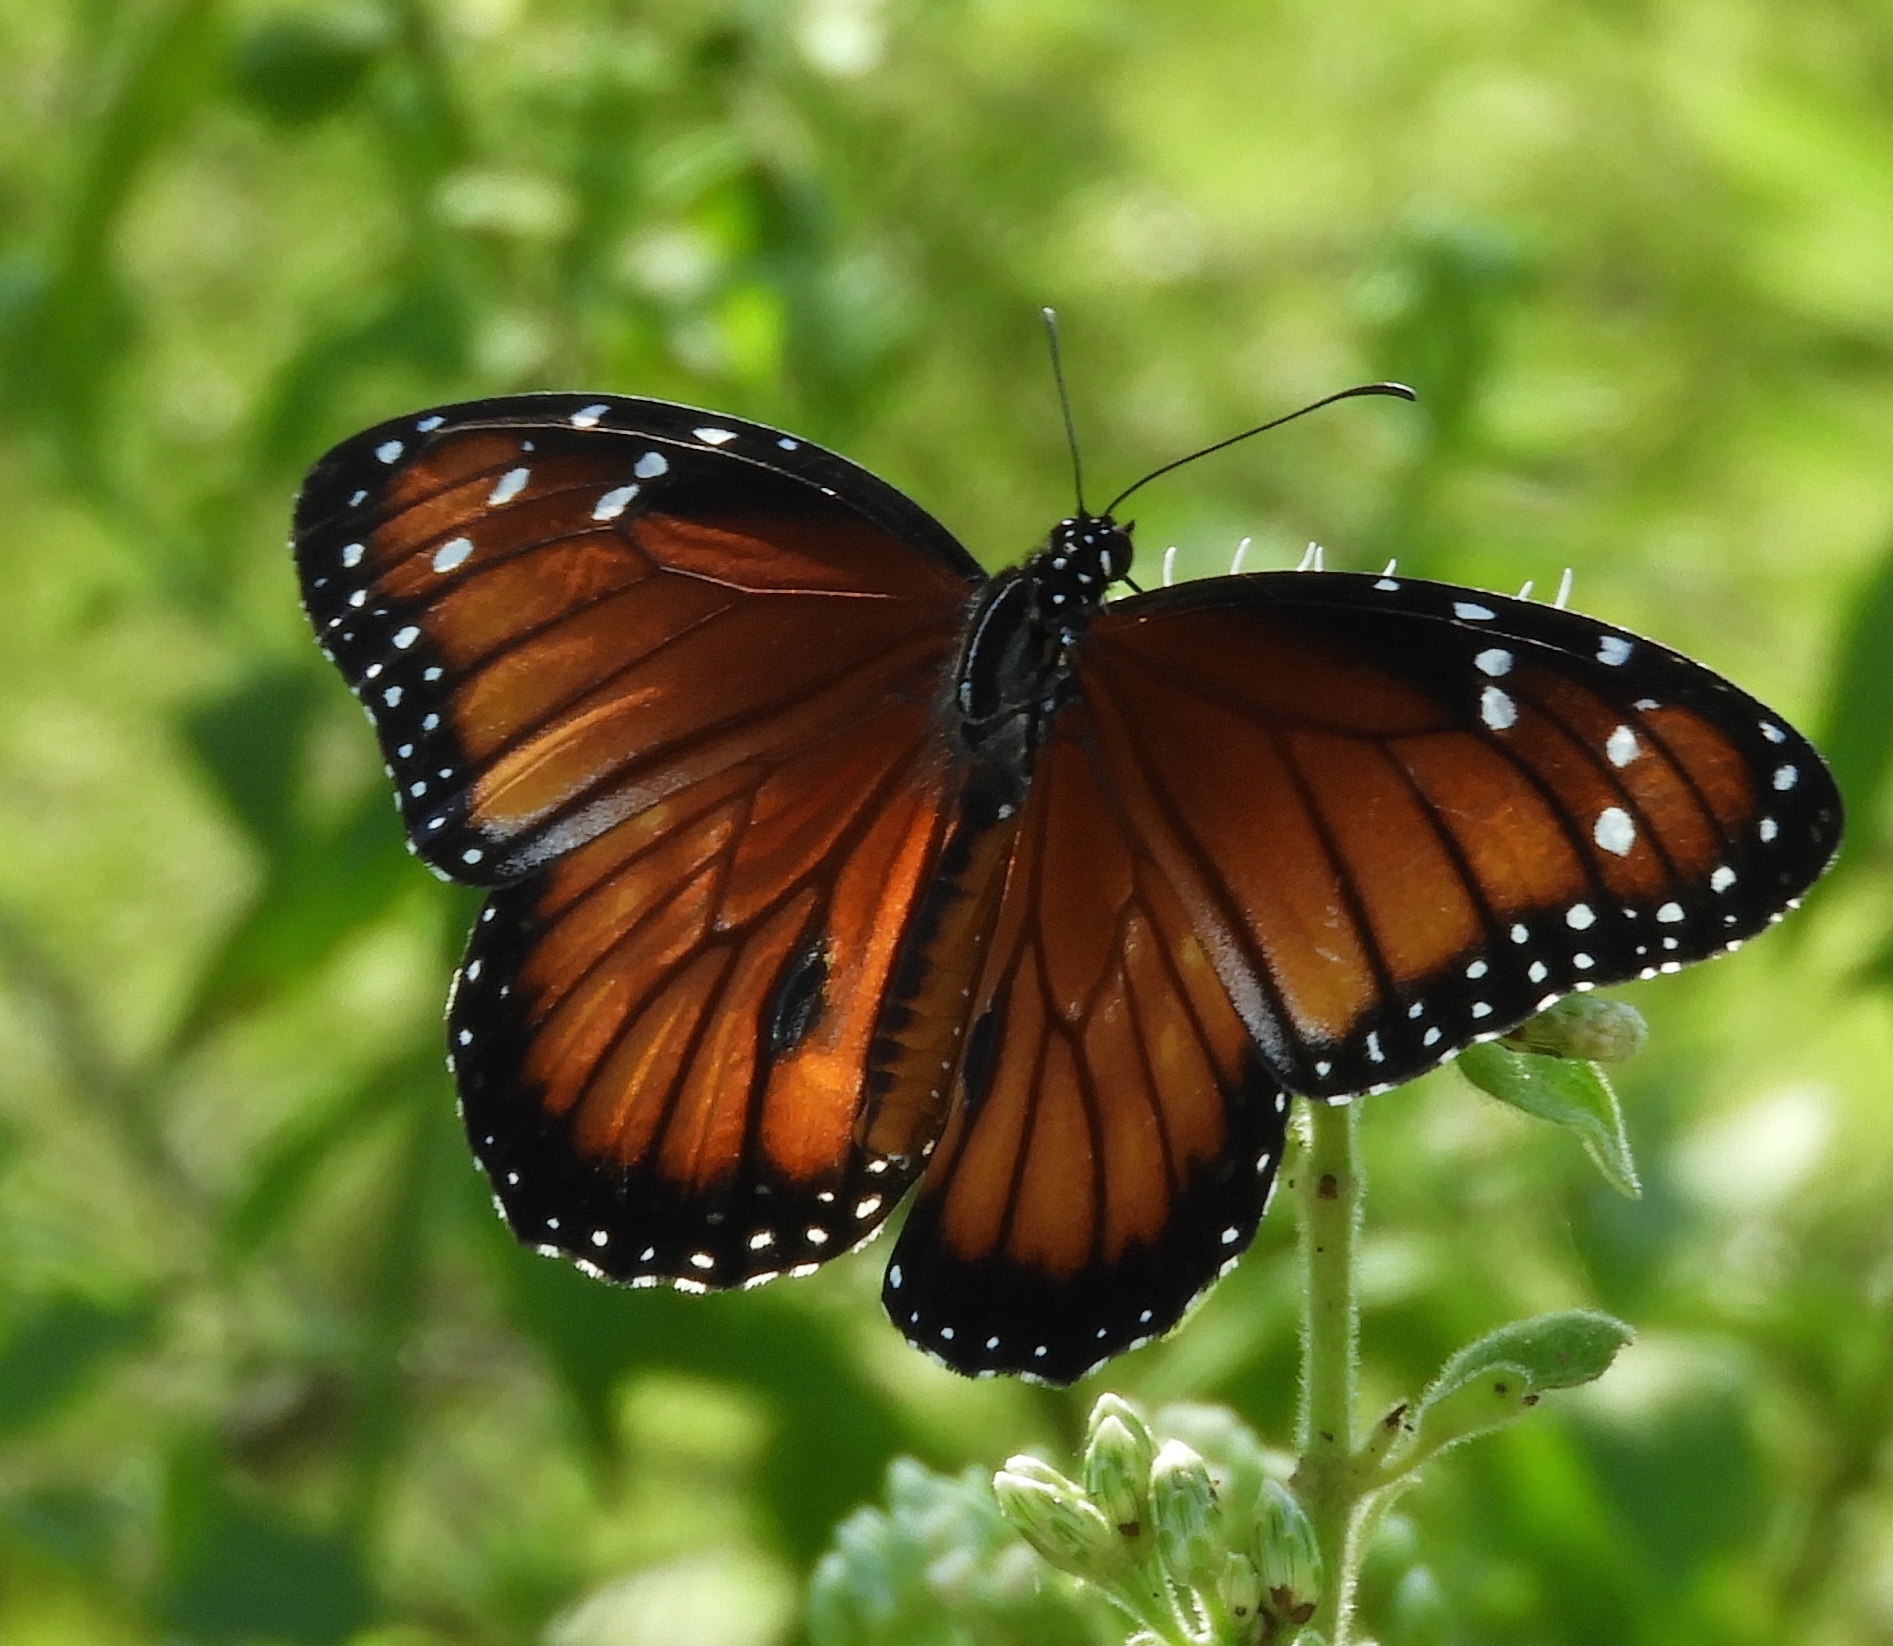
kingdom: Animalia
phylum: Arthropoda
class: Insecta
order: Lepidoptera
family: Nymphalidae
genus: Danaus
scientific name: Danaus eresimus
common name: Soldier
